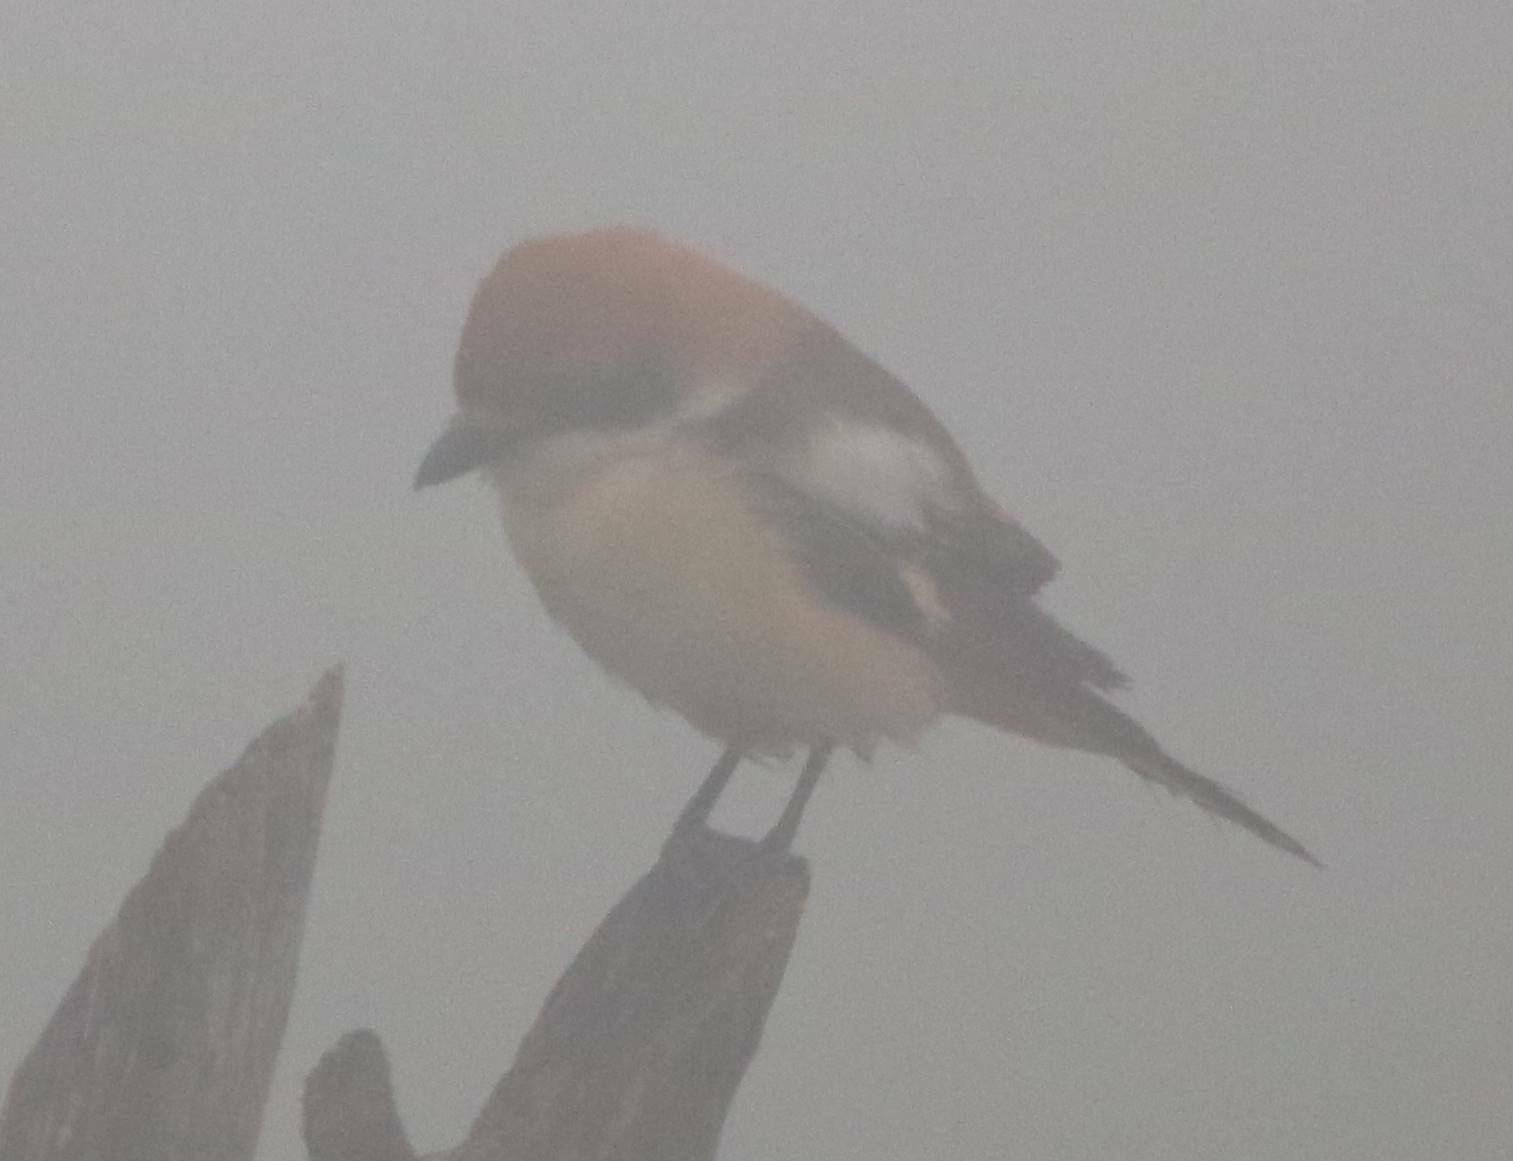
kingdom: Animalia
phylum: Chordata
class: Aves
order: Passeriformes
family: Laniidae
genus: Lanius
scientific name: Lanius senator
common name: Woodchat shrike
